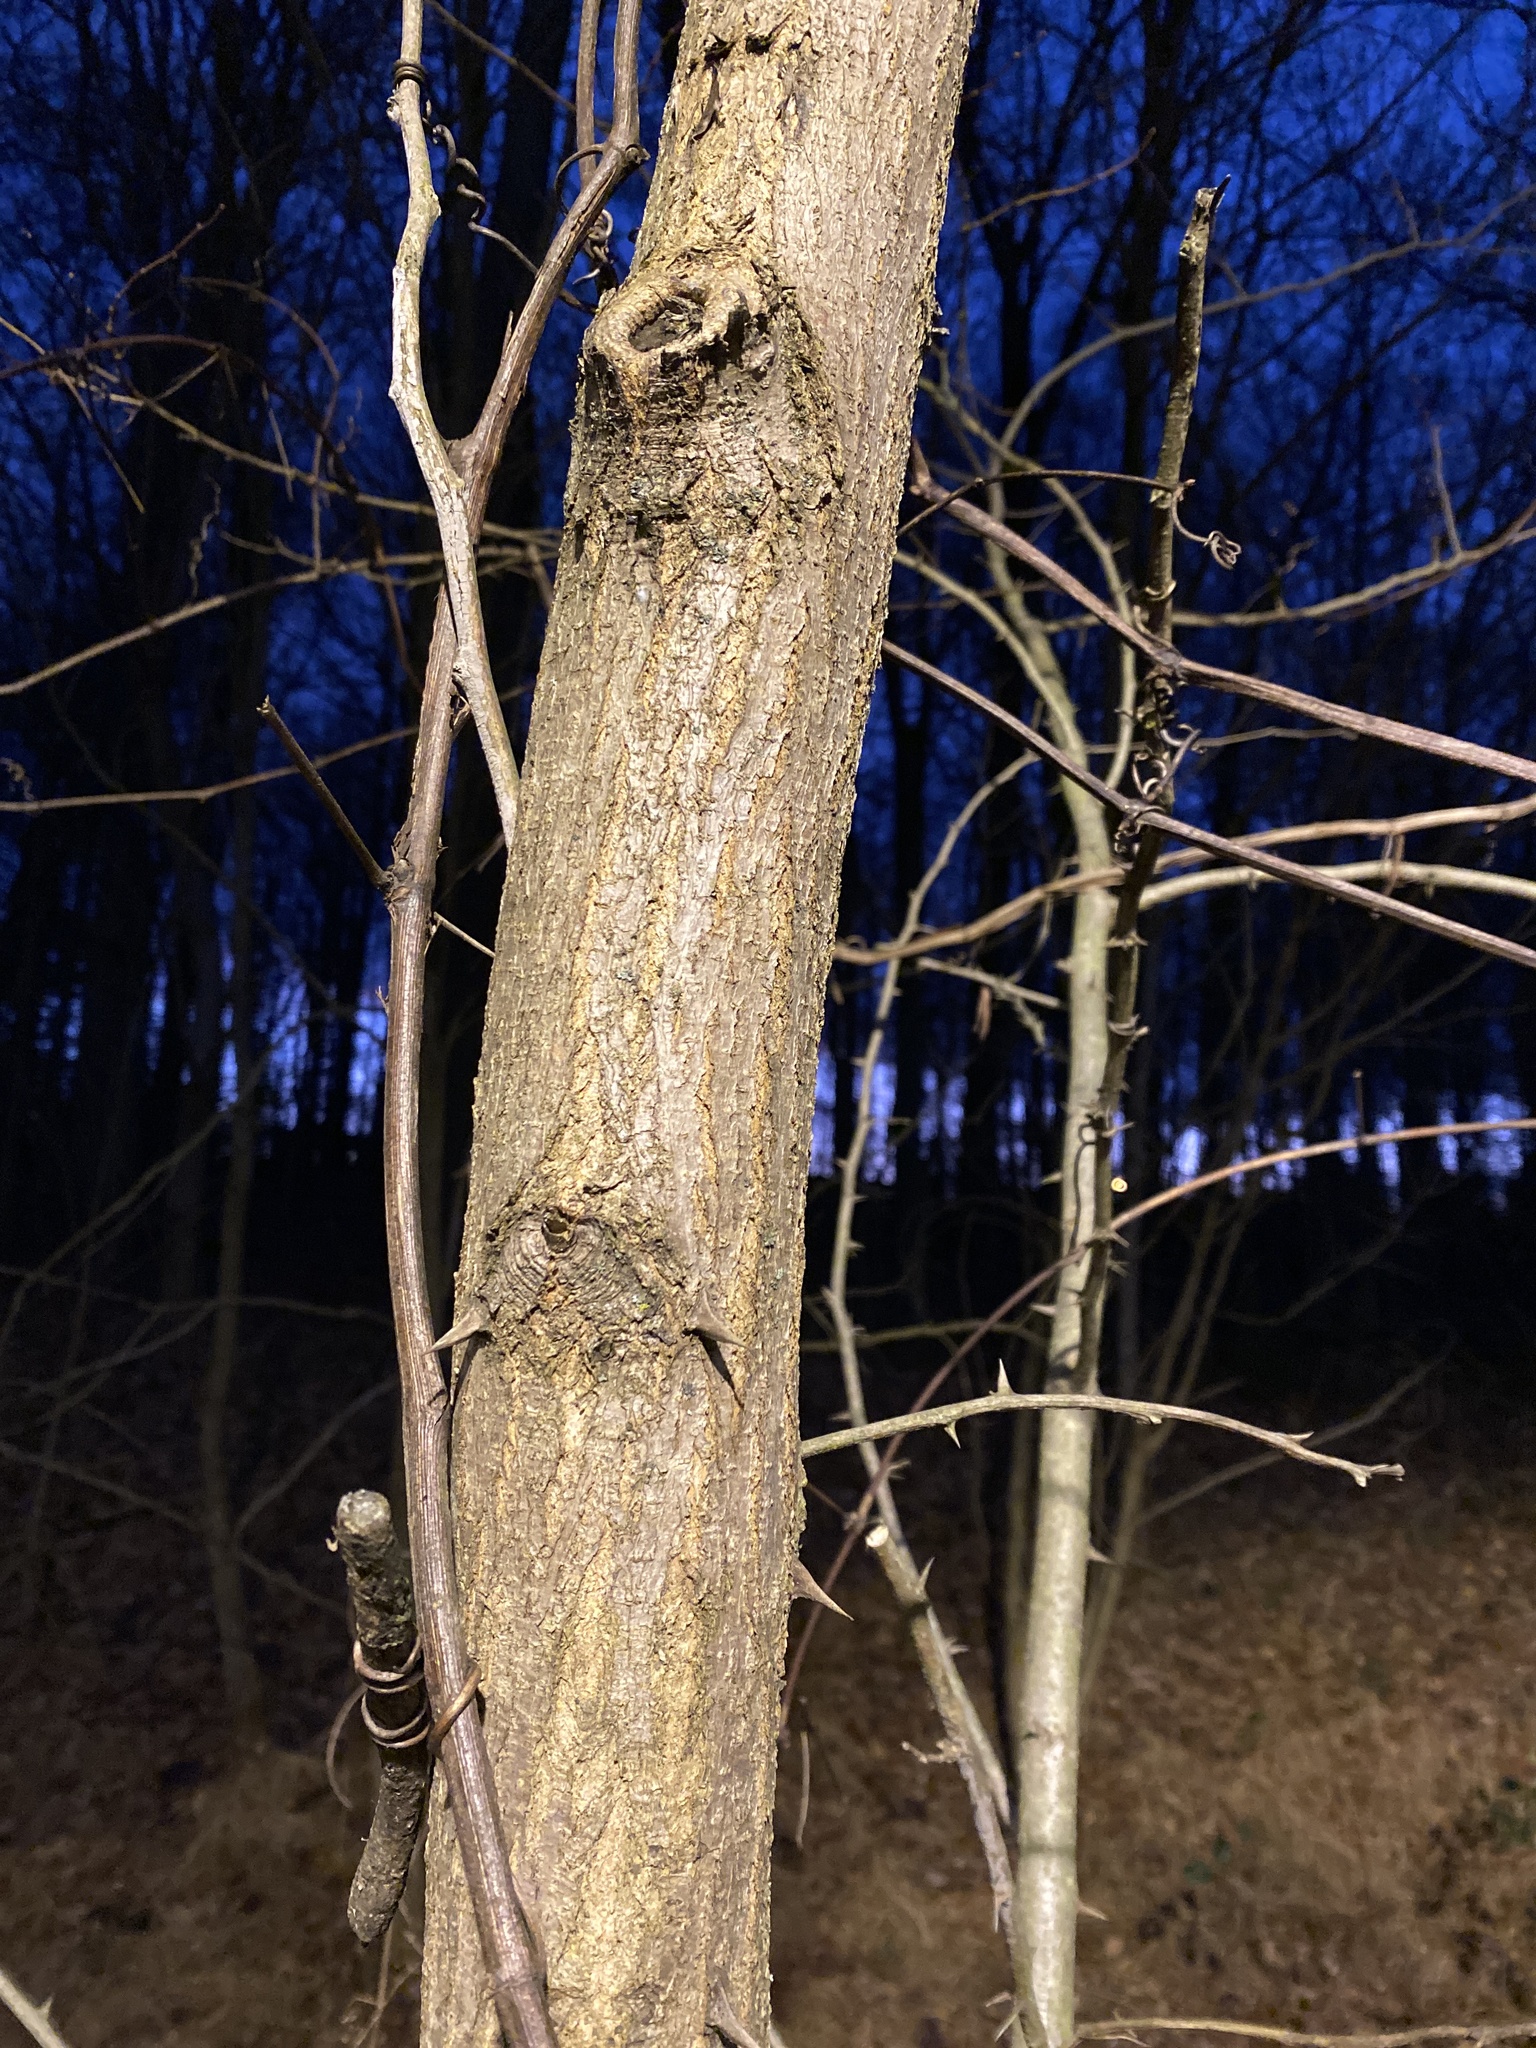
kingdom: Plantae
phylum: Tracheophyta
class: Magnoliopsida
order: Fabales
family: Fabaceae
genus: Robinia
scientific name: Robinia pseudoacacia
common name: Black locust
